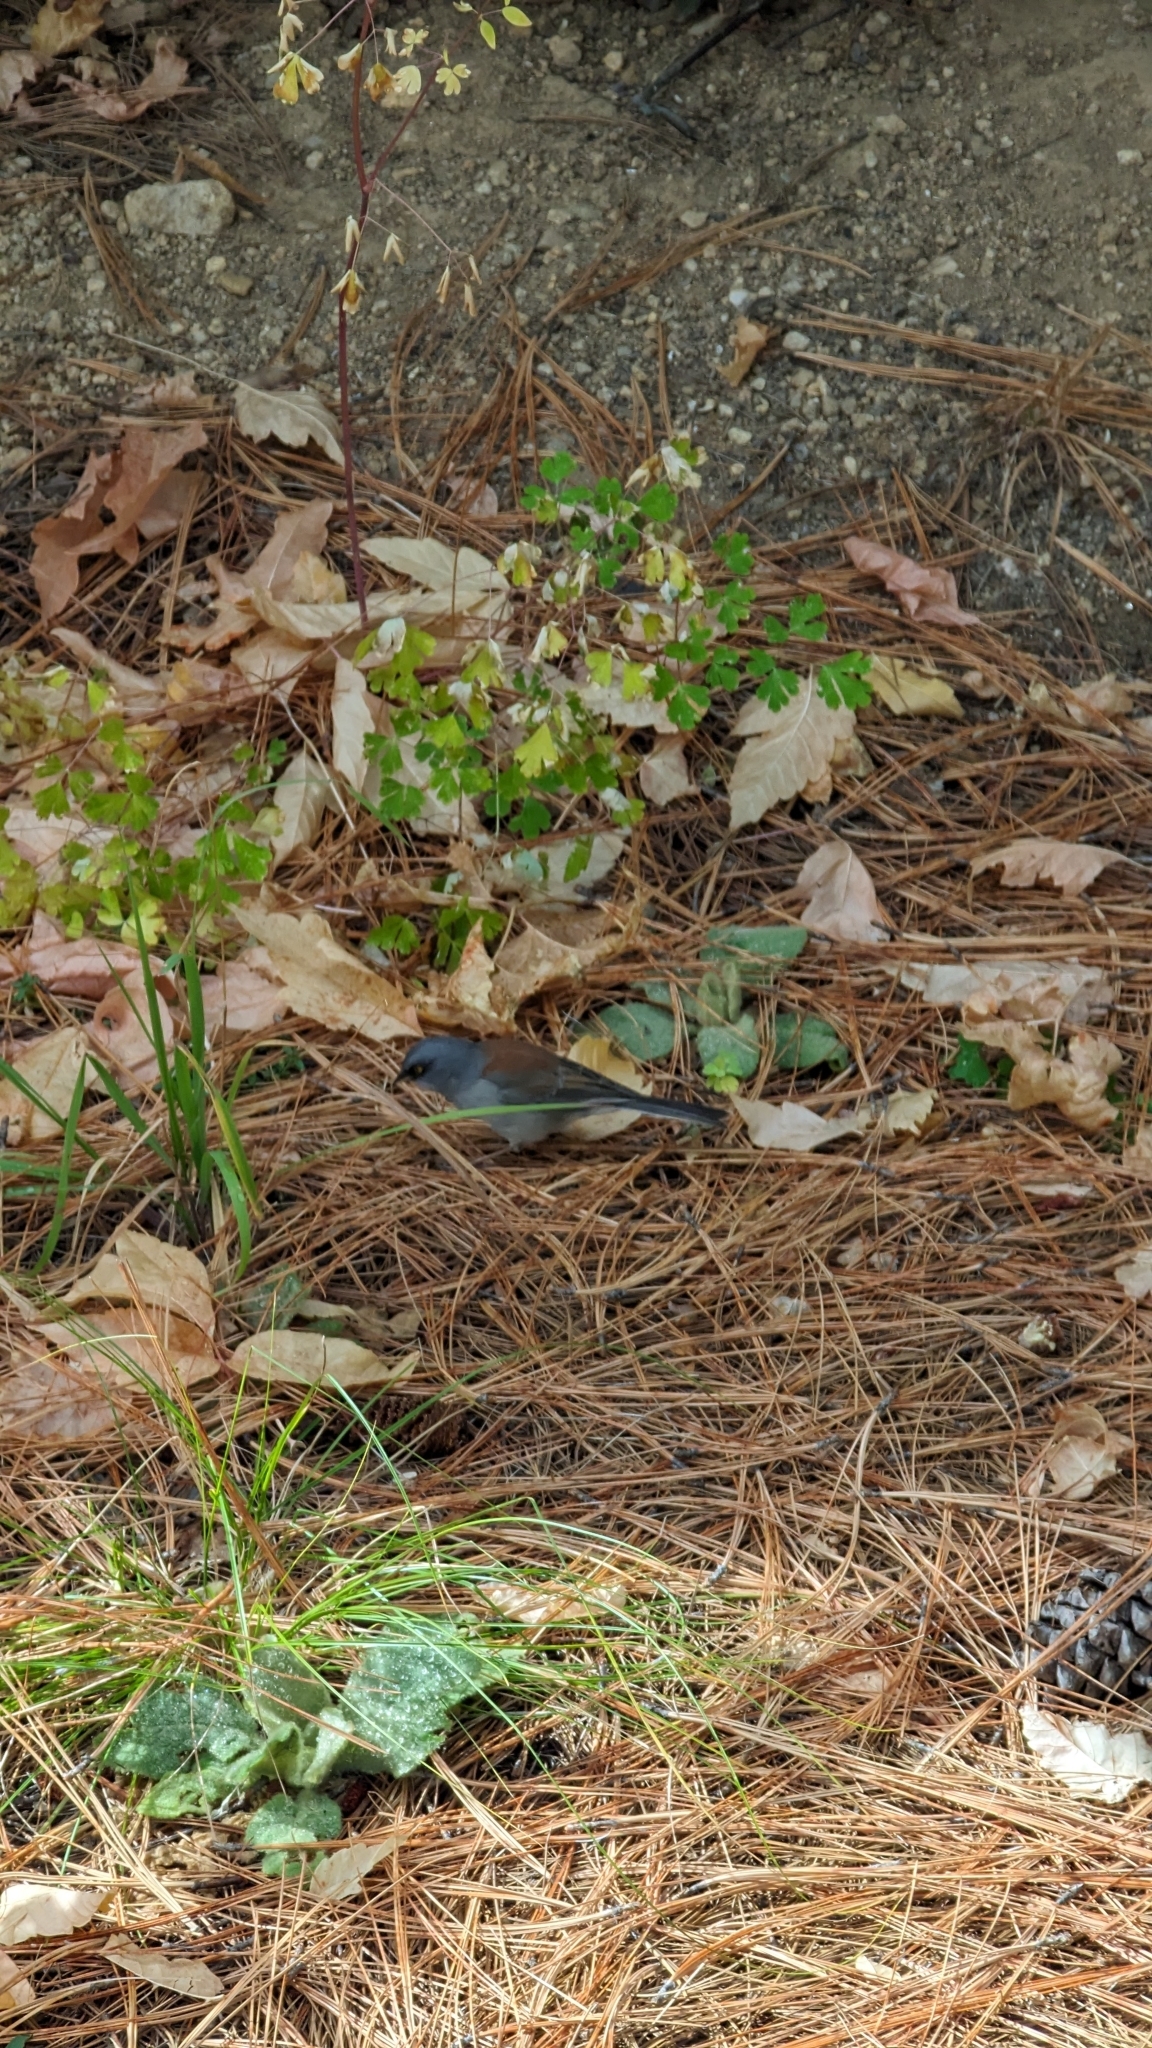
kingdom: Animalia
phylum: Chordata
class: Aves
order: Passeriformes
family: Passerellidae
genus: Junco
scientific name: Junco phaeonotus
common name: Yellow-eyed junco
